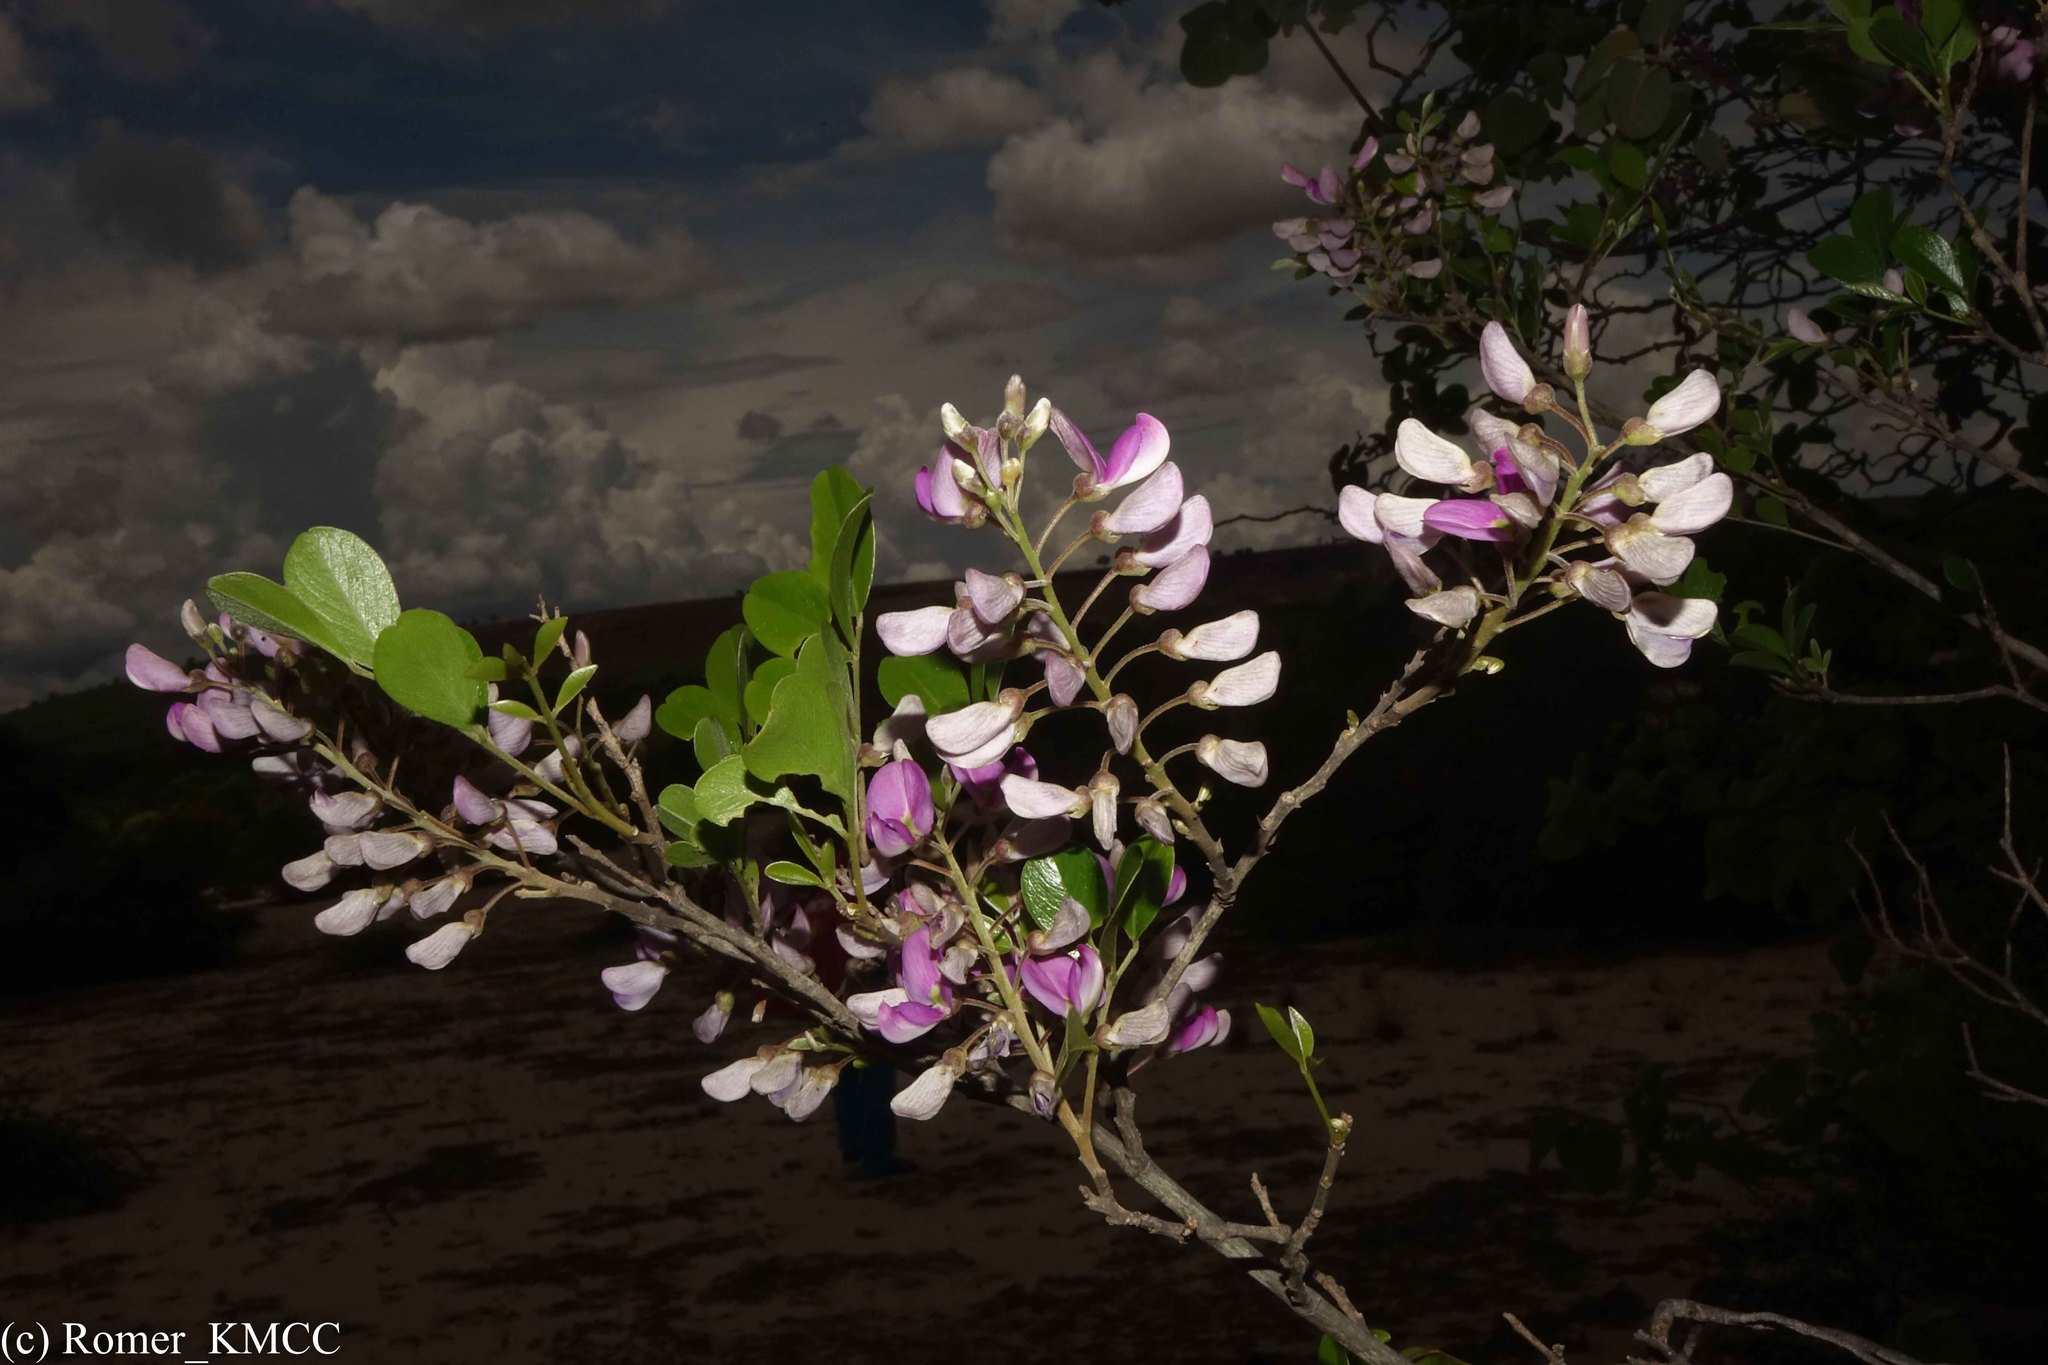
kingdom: Plantae
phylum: Tracheophyta
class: Magnoliopsida
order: Fabales
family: Fabaceae
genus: Mundulea
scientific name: Mundulea sericea
